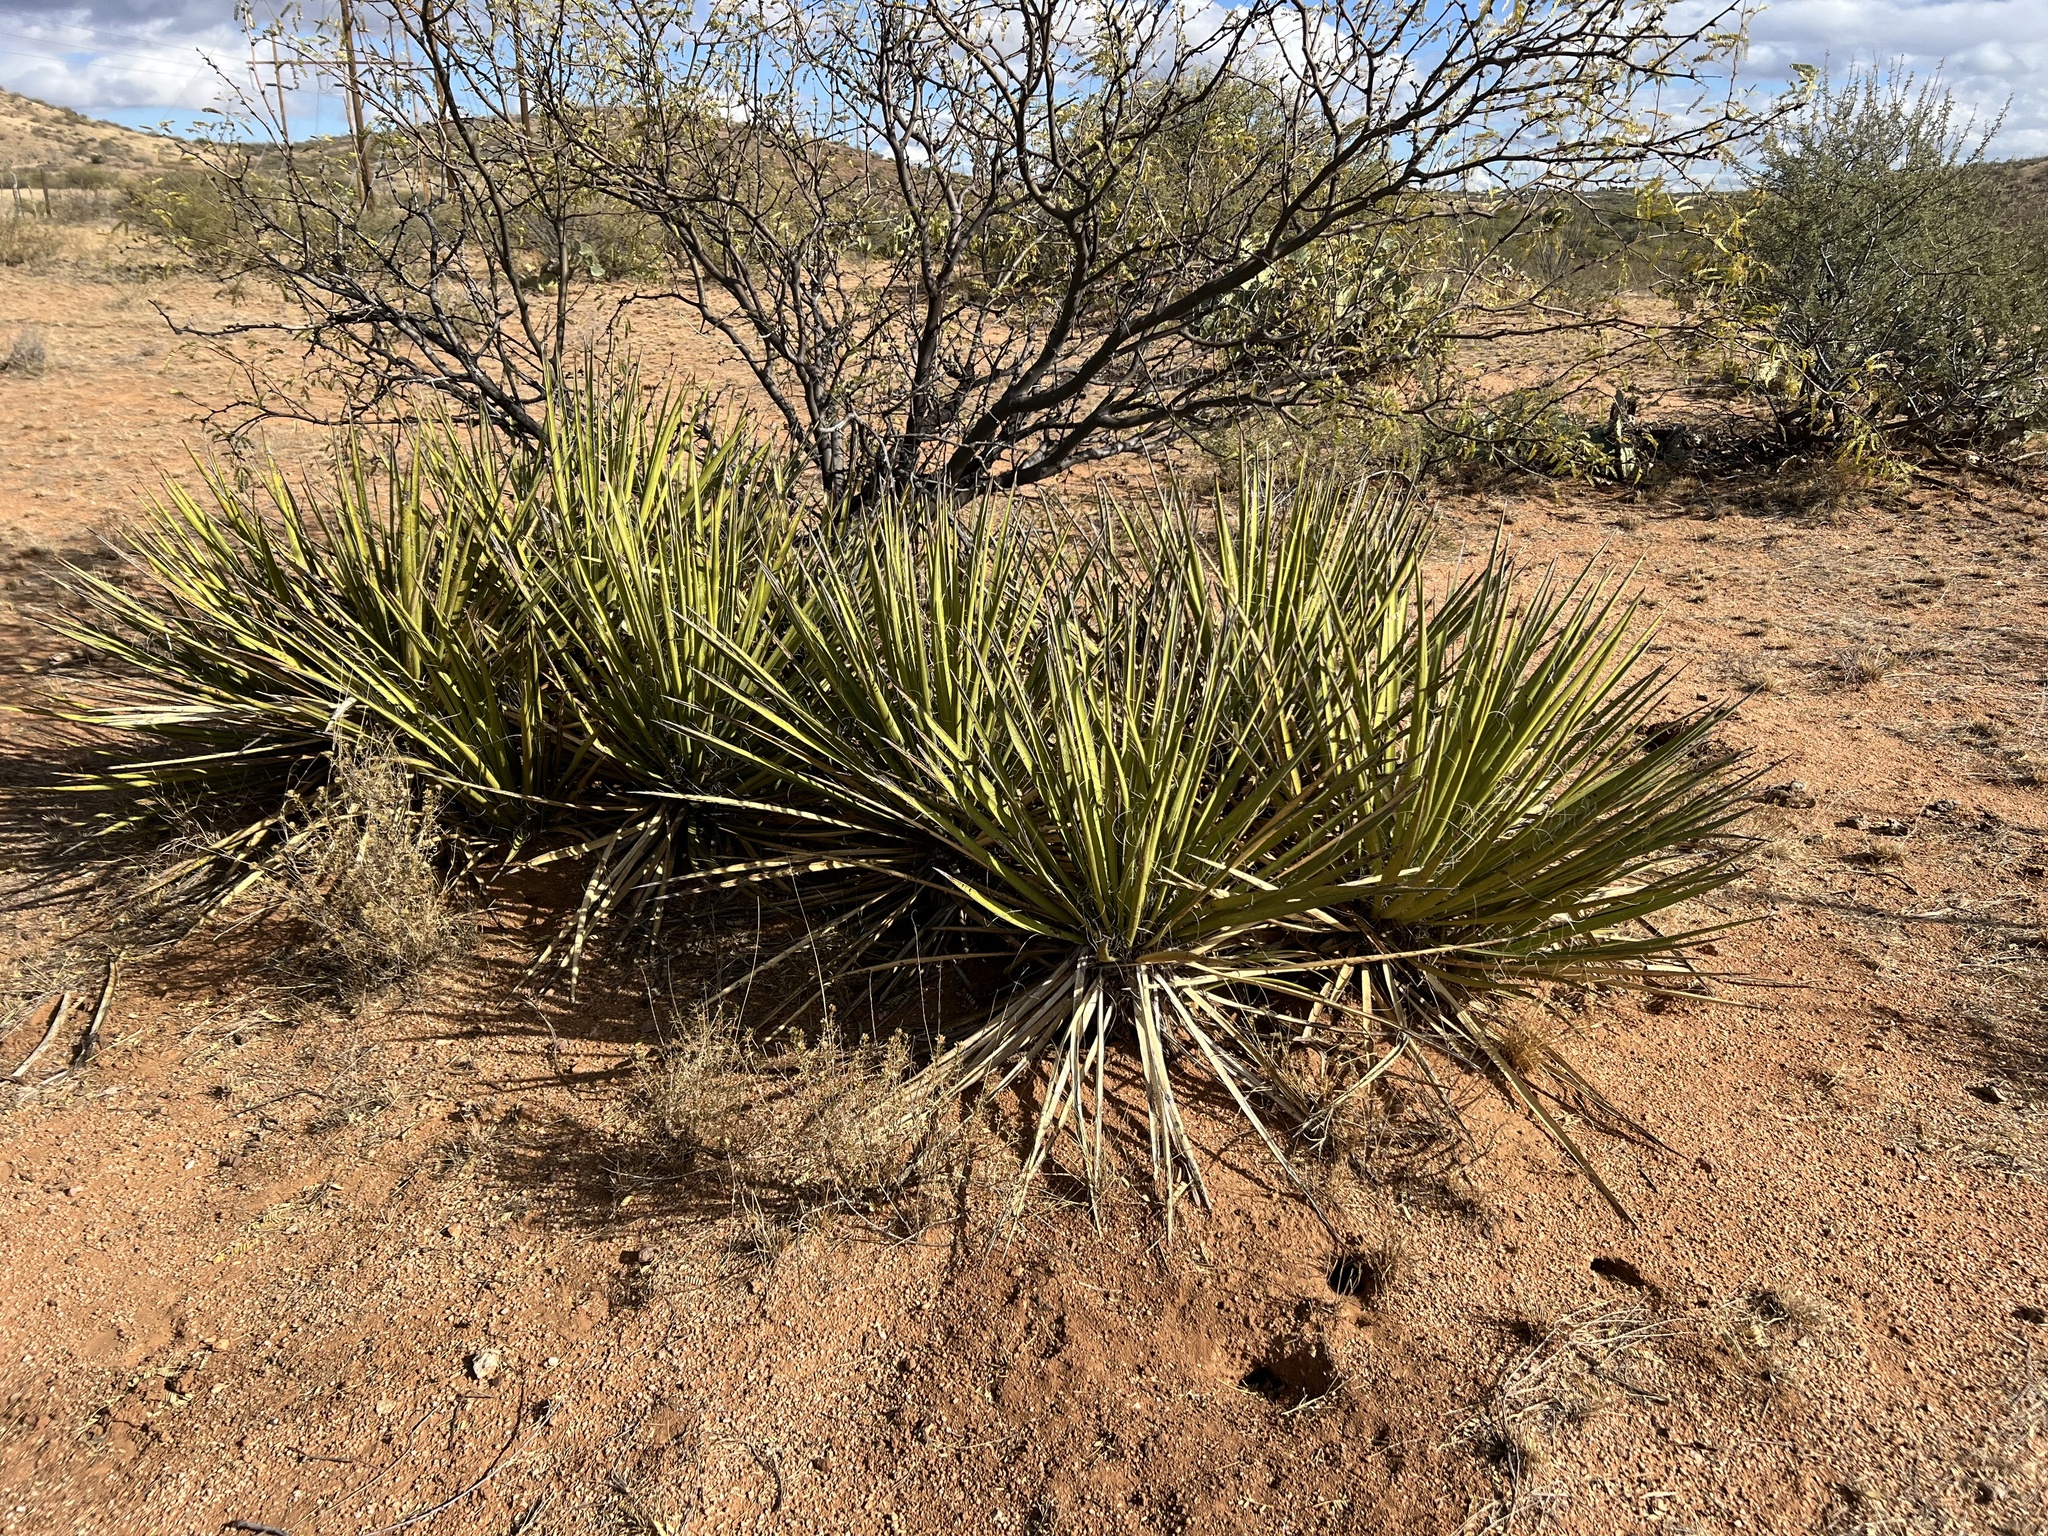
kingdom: Plantae
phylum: Tracheophyta
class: Liliopsida
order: Asparagales
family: Asparagaceae
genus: Yucca
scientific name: Yucca baccata
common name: Banana yucca
